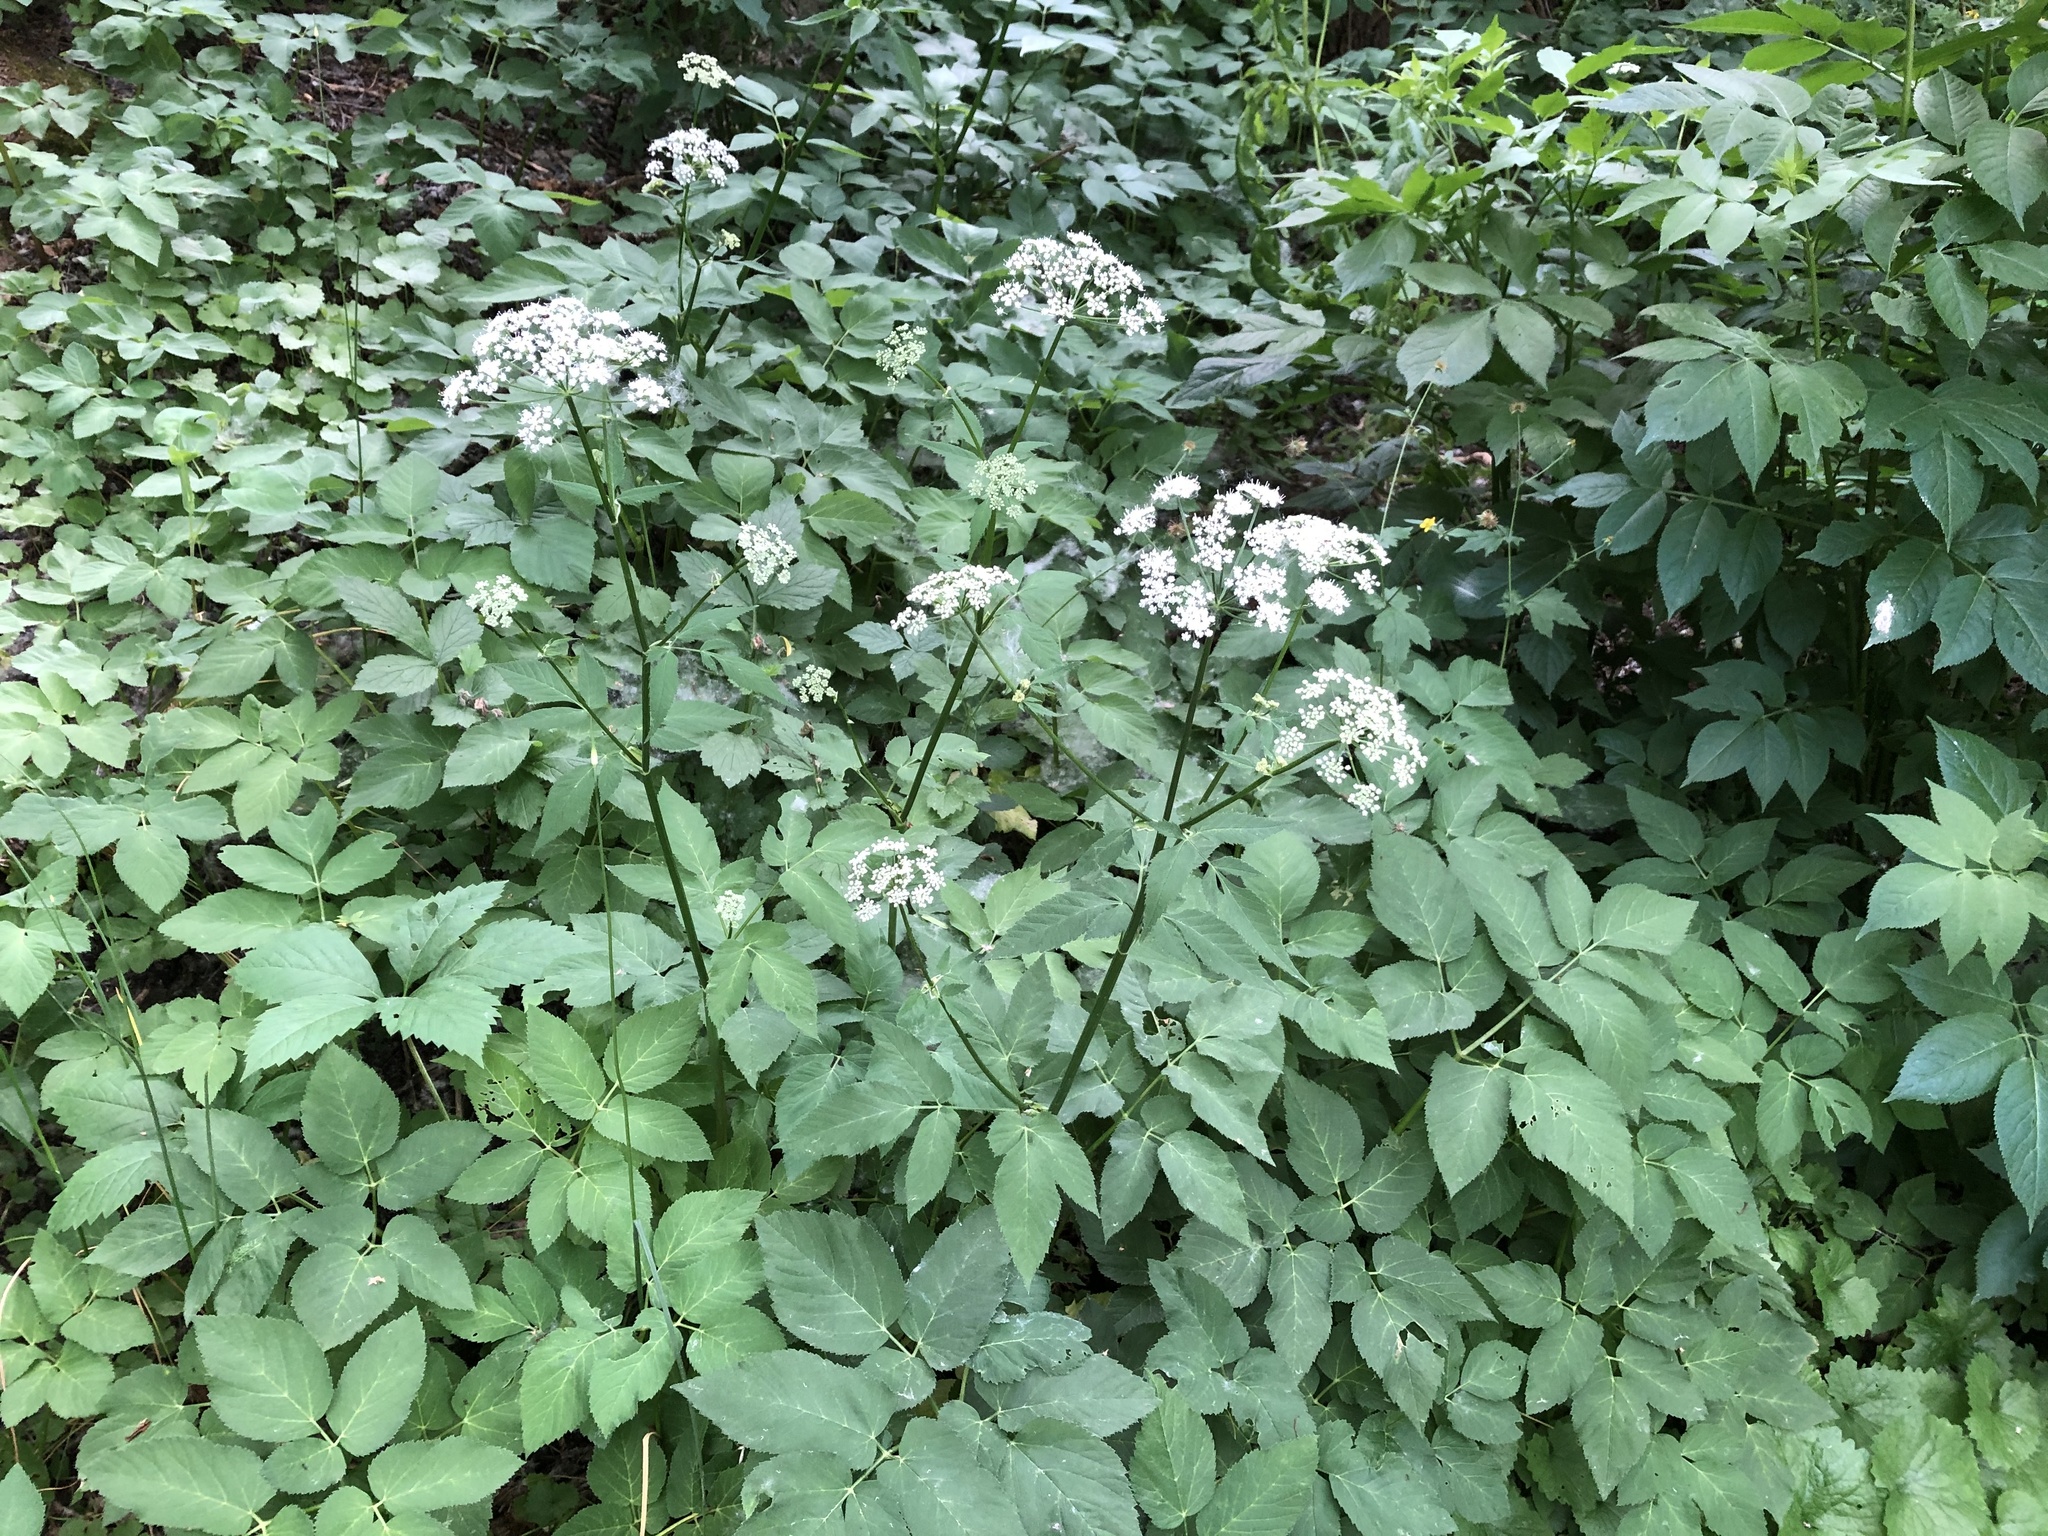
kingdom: Plantae
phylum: Tracheophyta
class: Magnoliopsida
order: Apiales
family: Apiaceae
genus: Aegopodium
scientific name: Aegopodium podagraria
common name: Ground-elder
